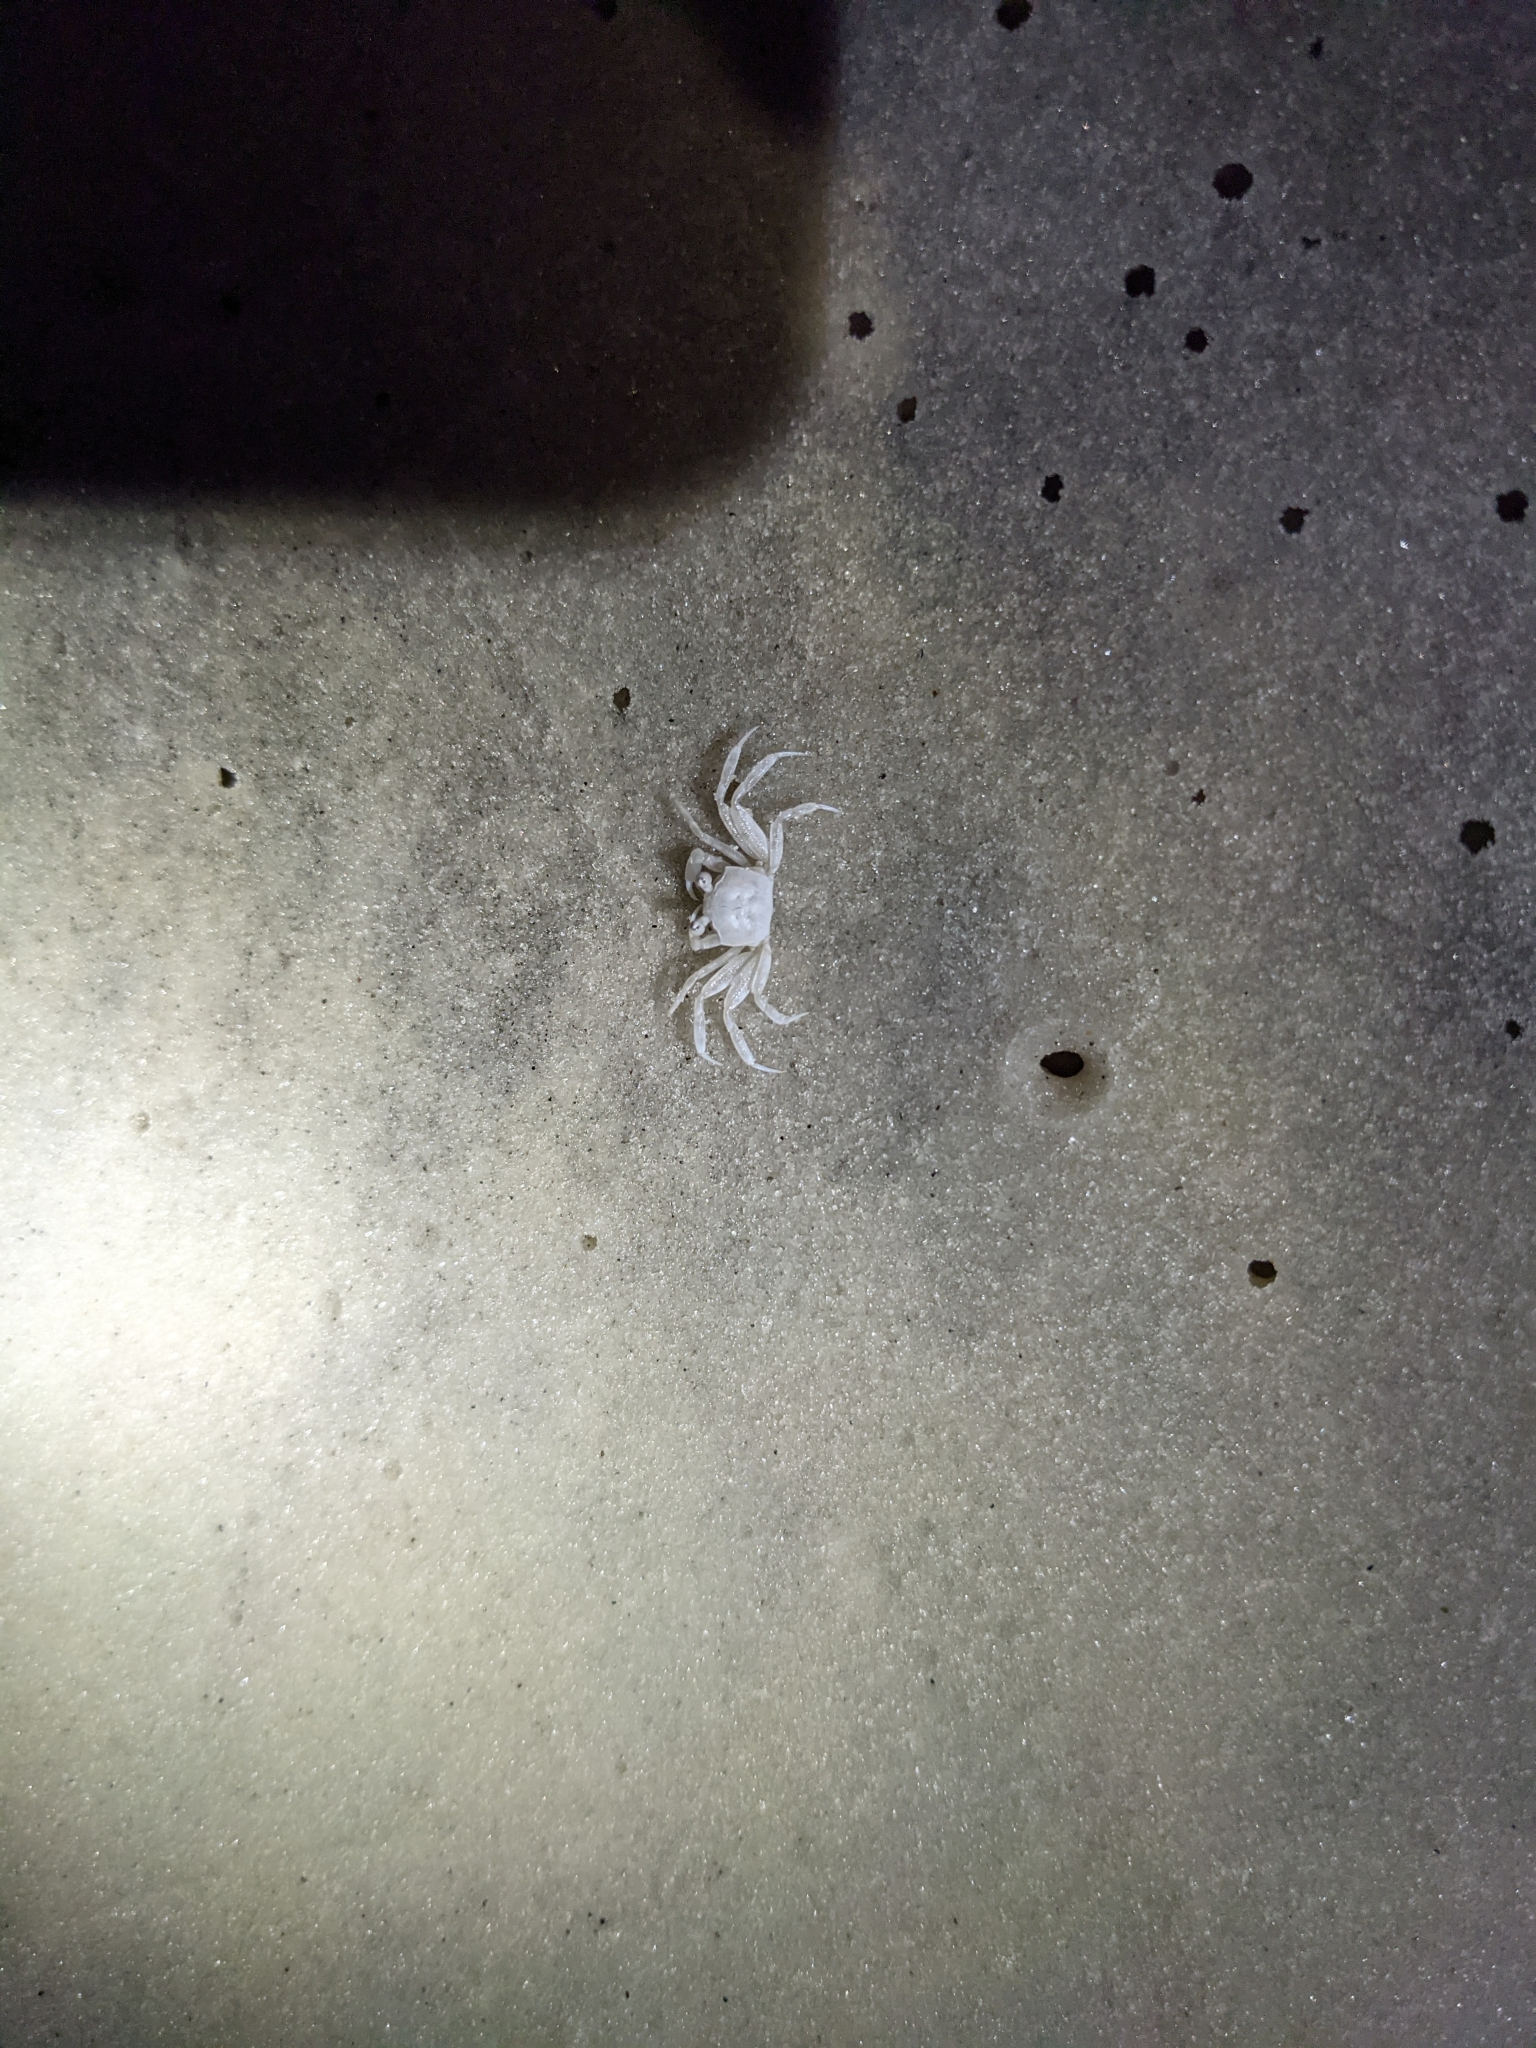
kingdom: Animalia
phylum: Arthropoda
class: Malacostraca
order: Decapoda
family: Ocypodidae
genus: Ocypode
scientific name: Ocypode quadrata
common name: Ghost crab
